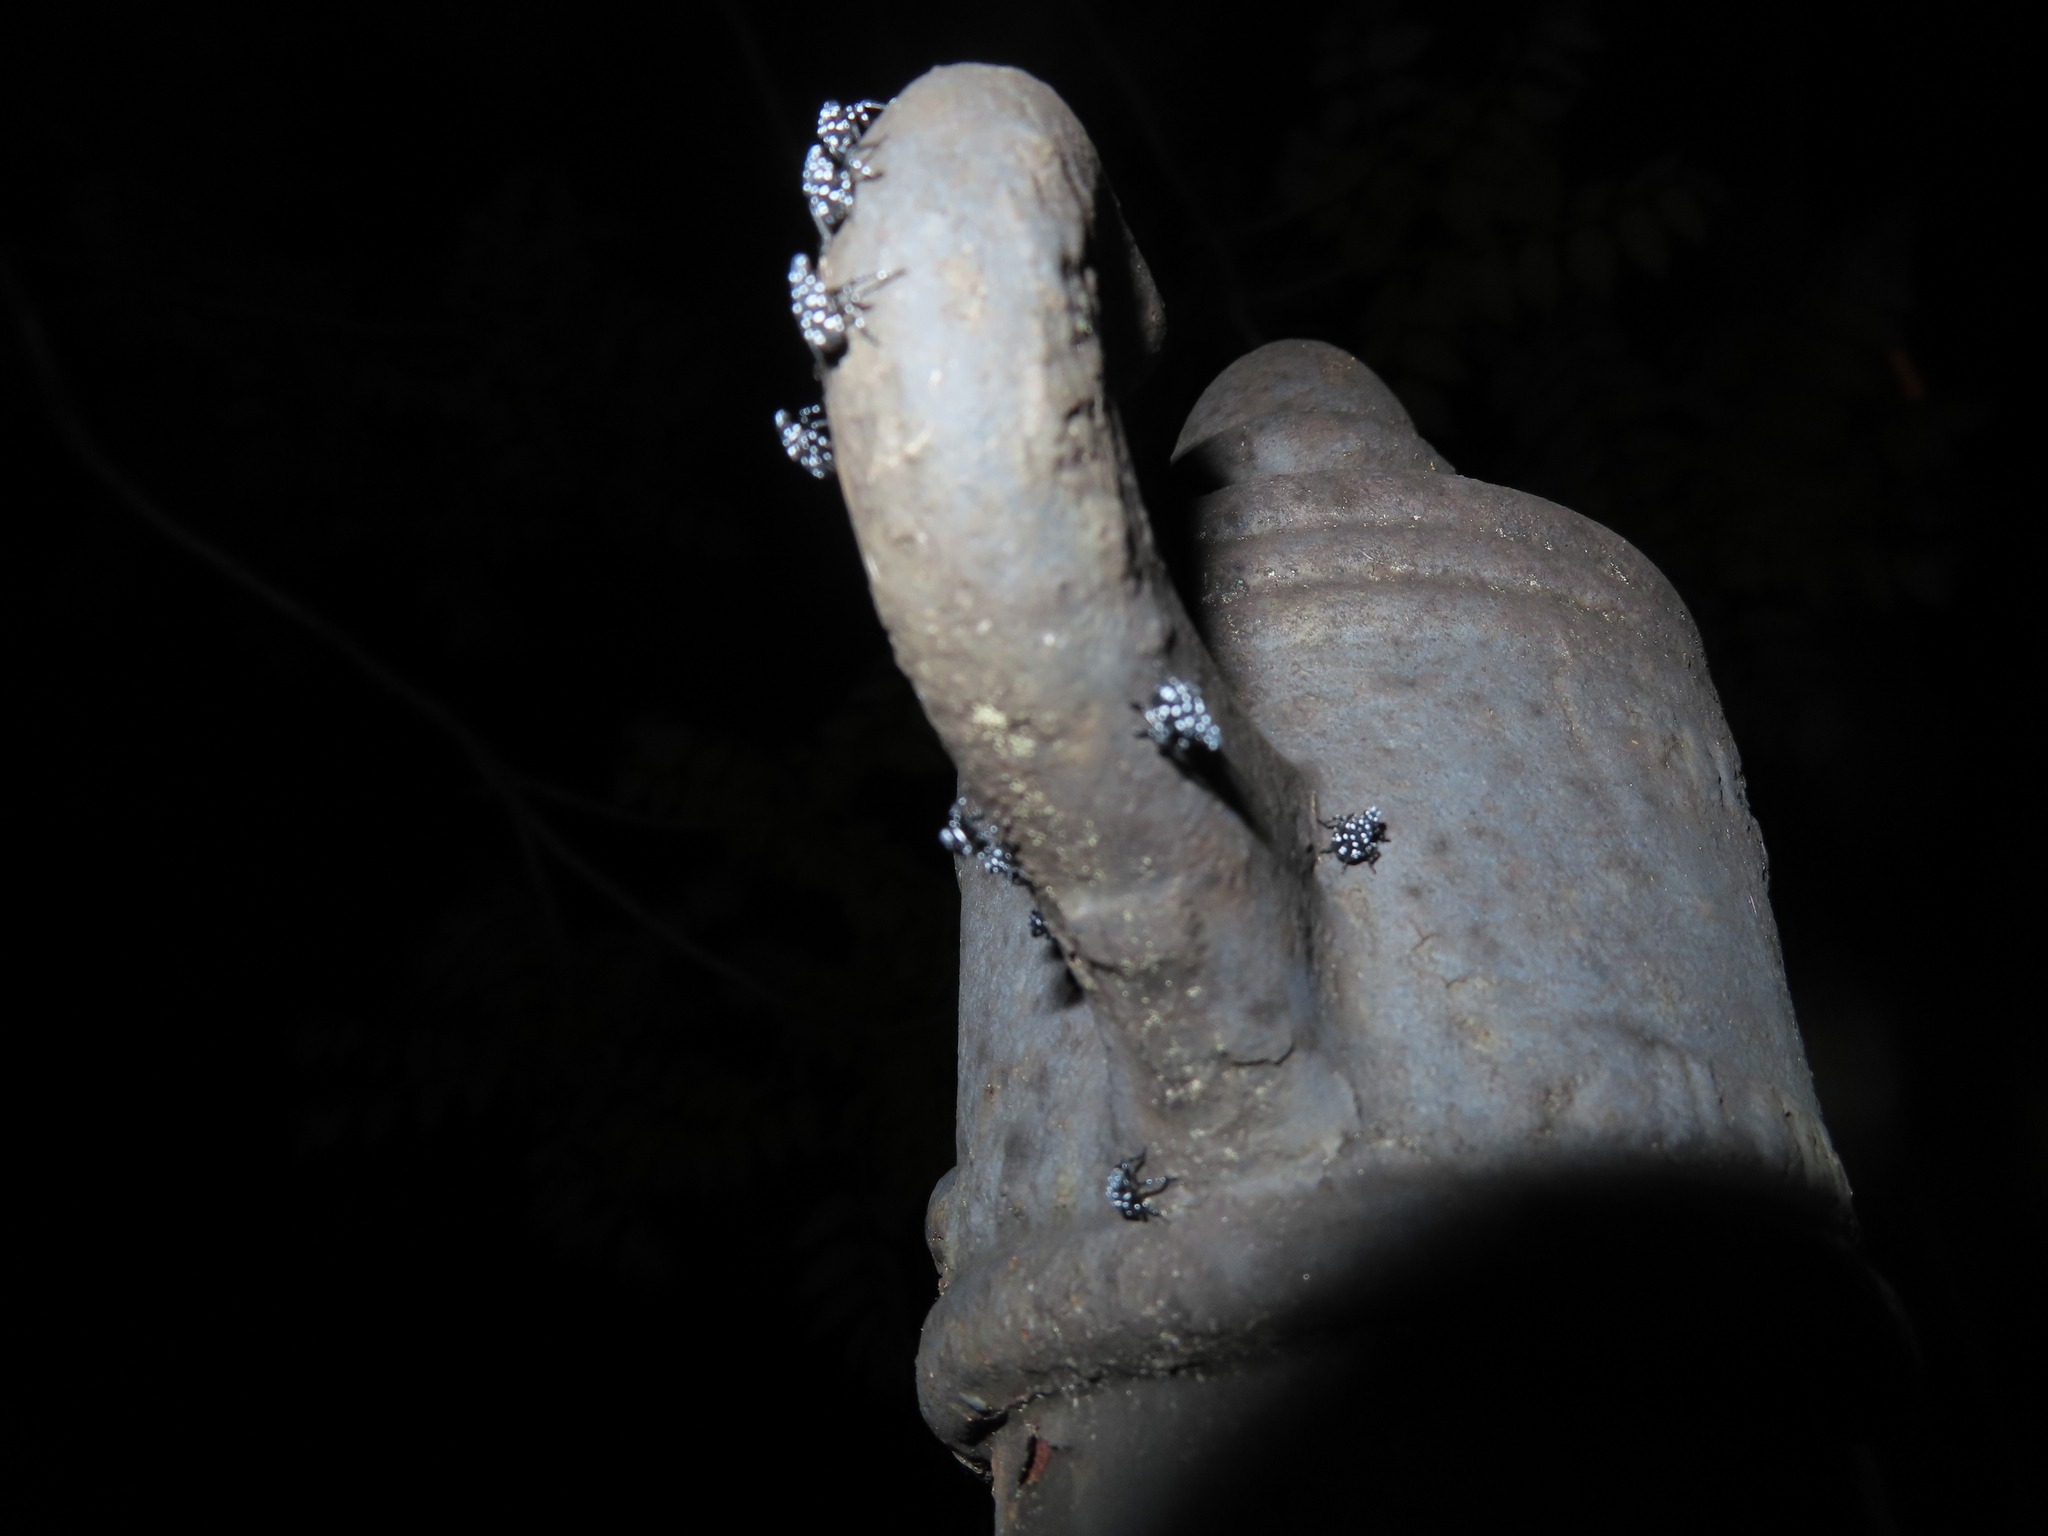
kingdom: Animalia
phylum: Arthropoda
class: Insecta
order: Hemiptera
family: Fulgoridae
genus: Lycorma
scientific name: Lycorma delicatula
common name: Spotted lanternfly
